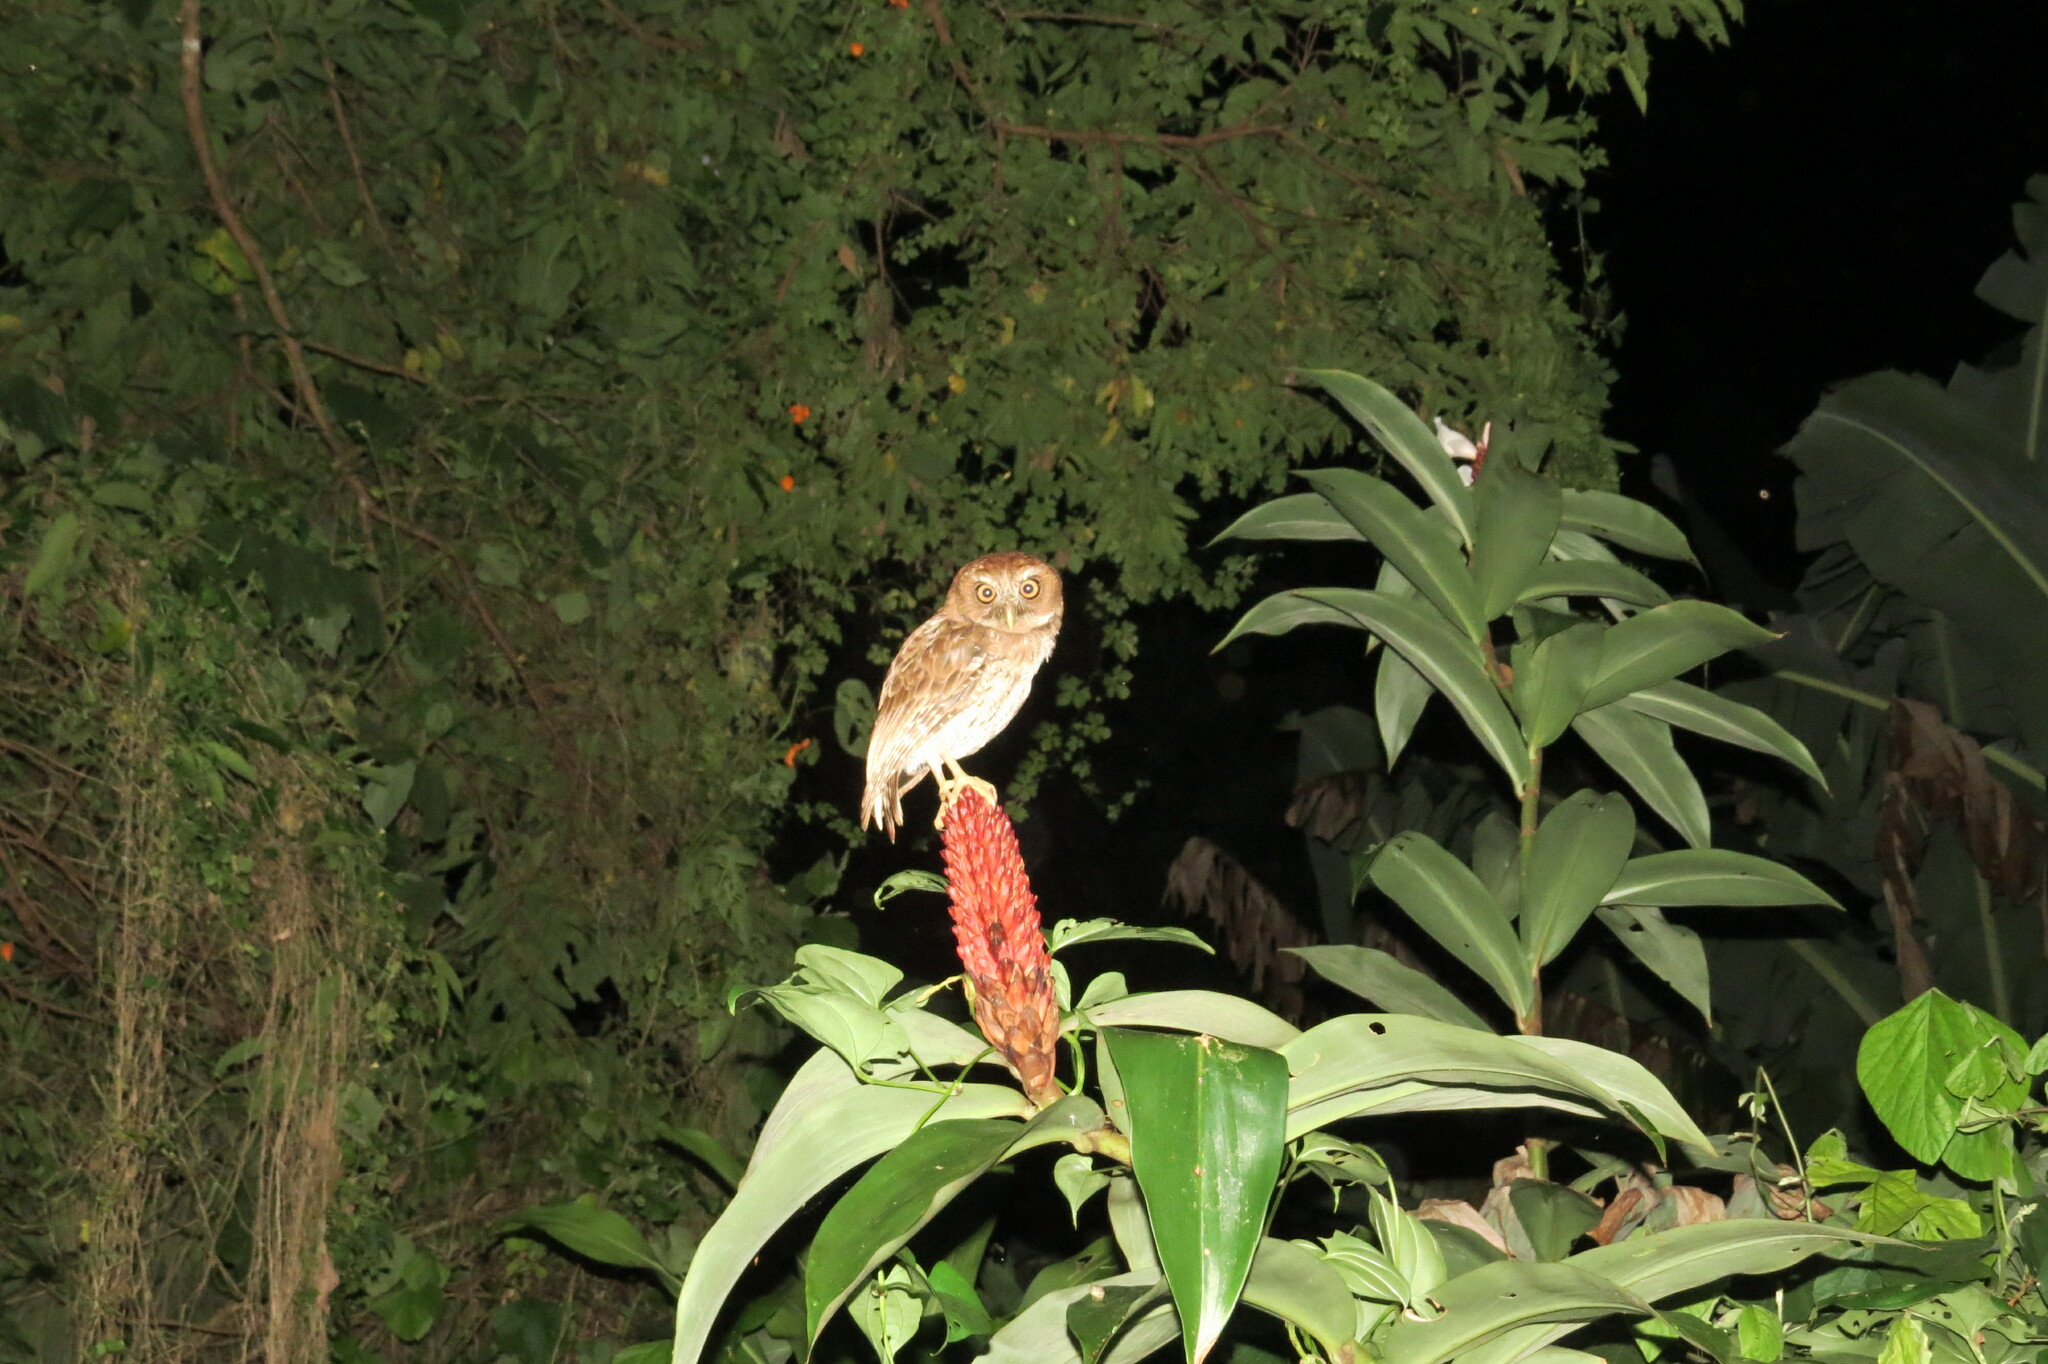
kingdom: Animalia
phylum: Chordata
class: Aves
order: Strigiformes
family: Strigidae
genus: Megascops
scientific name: Megascops nudipes
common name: Puerto rican screech-owl
